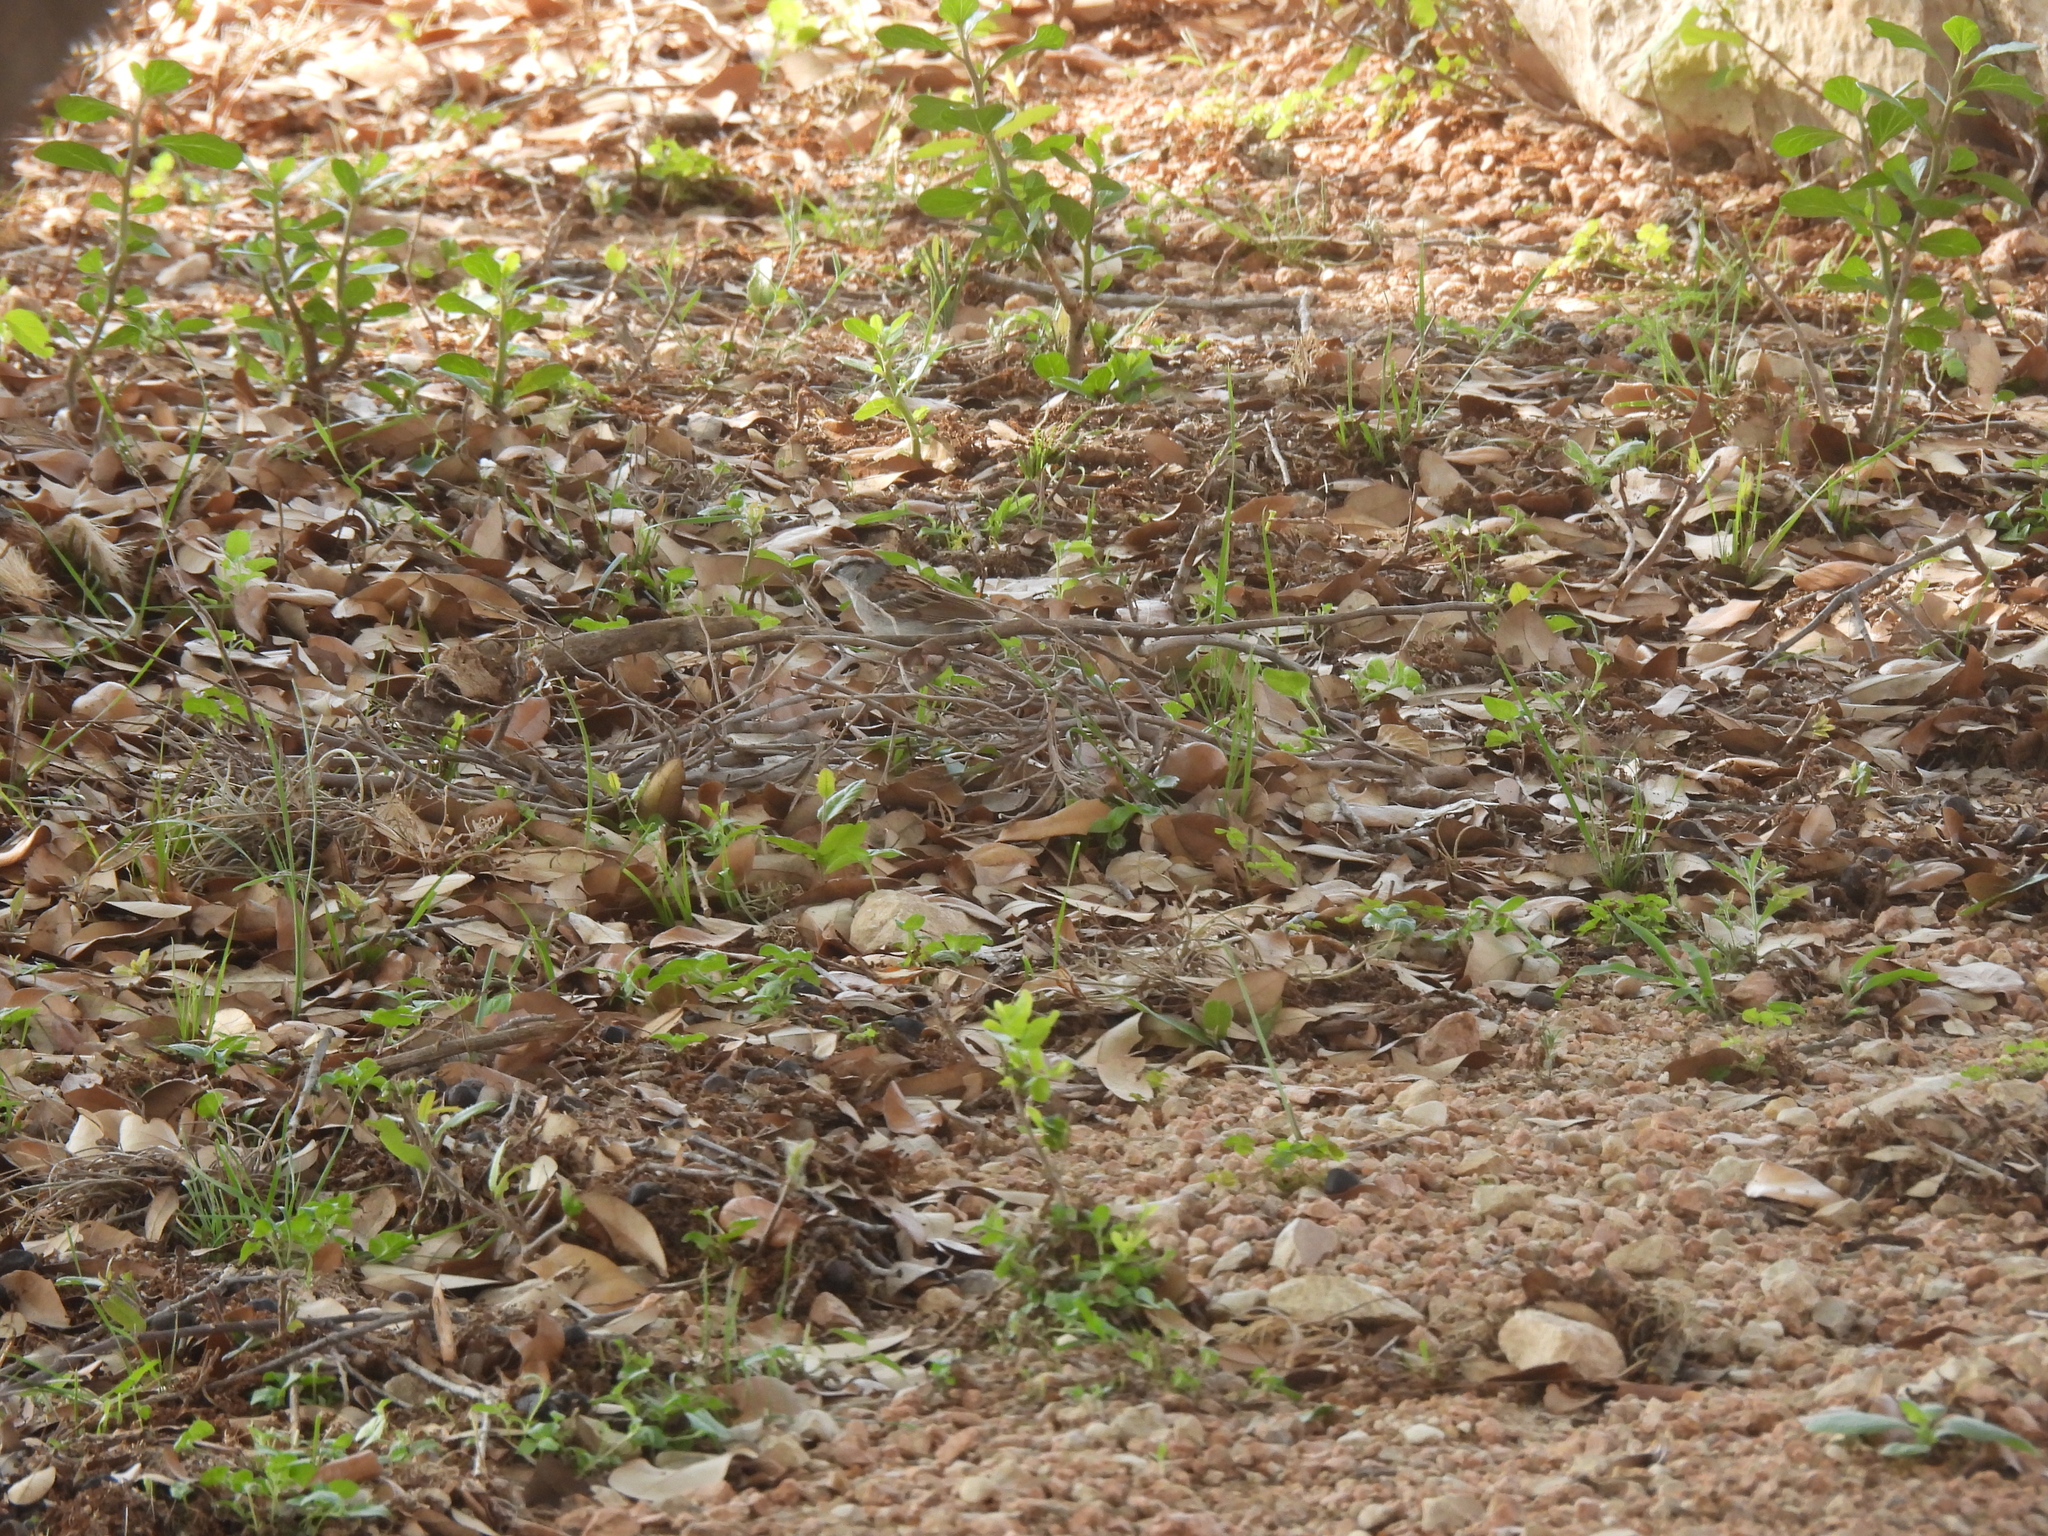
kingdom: Animalia
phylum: Chordata
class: Aves
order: Passeriformes
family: Passerellidae
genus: Spizella
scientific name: Spizella passerina
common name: Chipping sparrow
